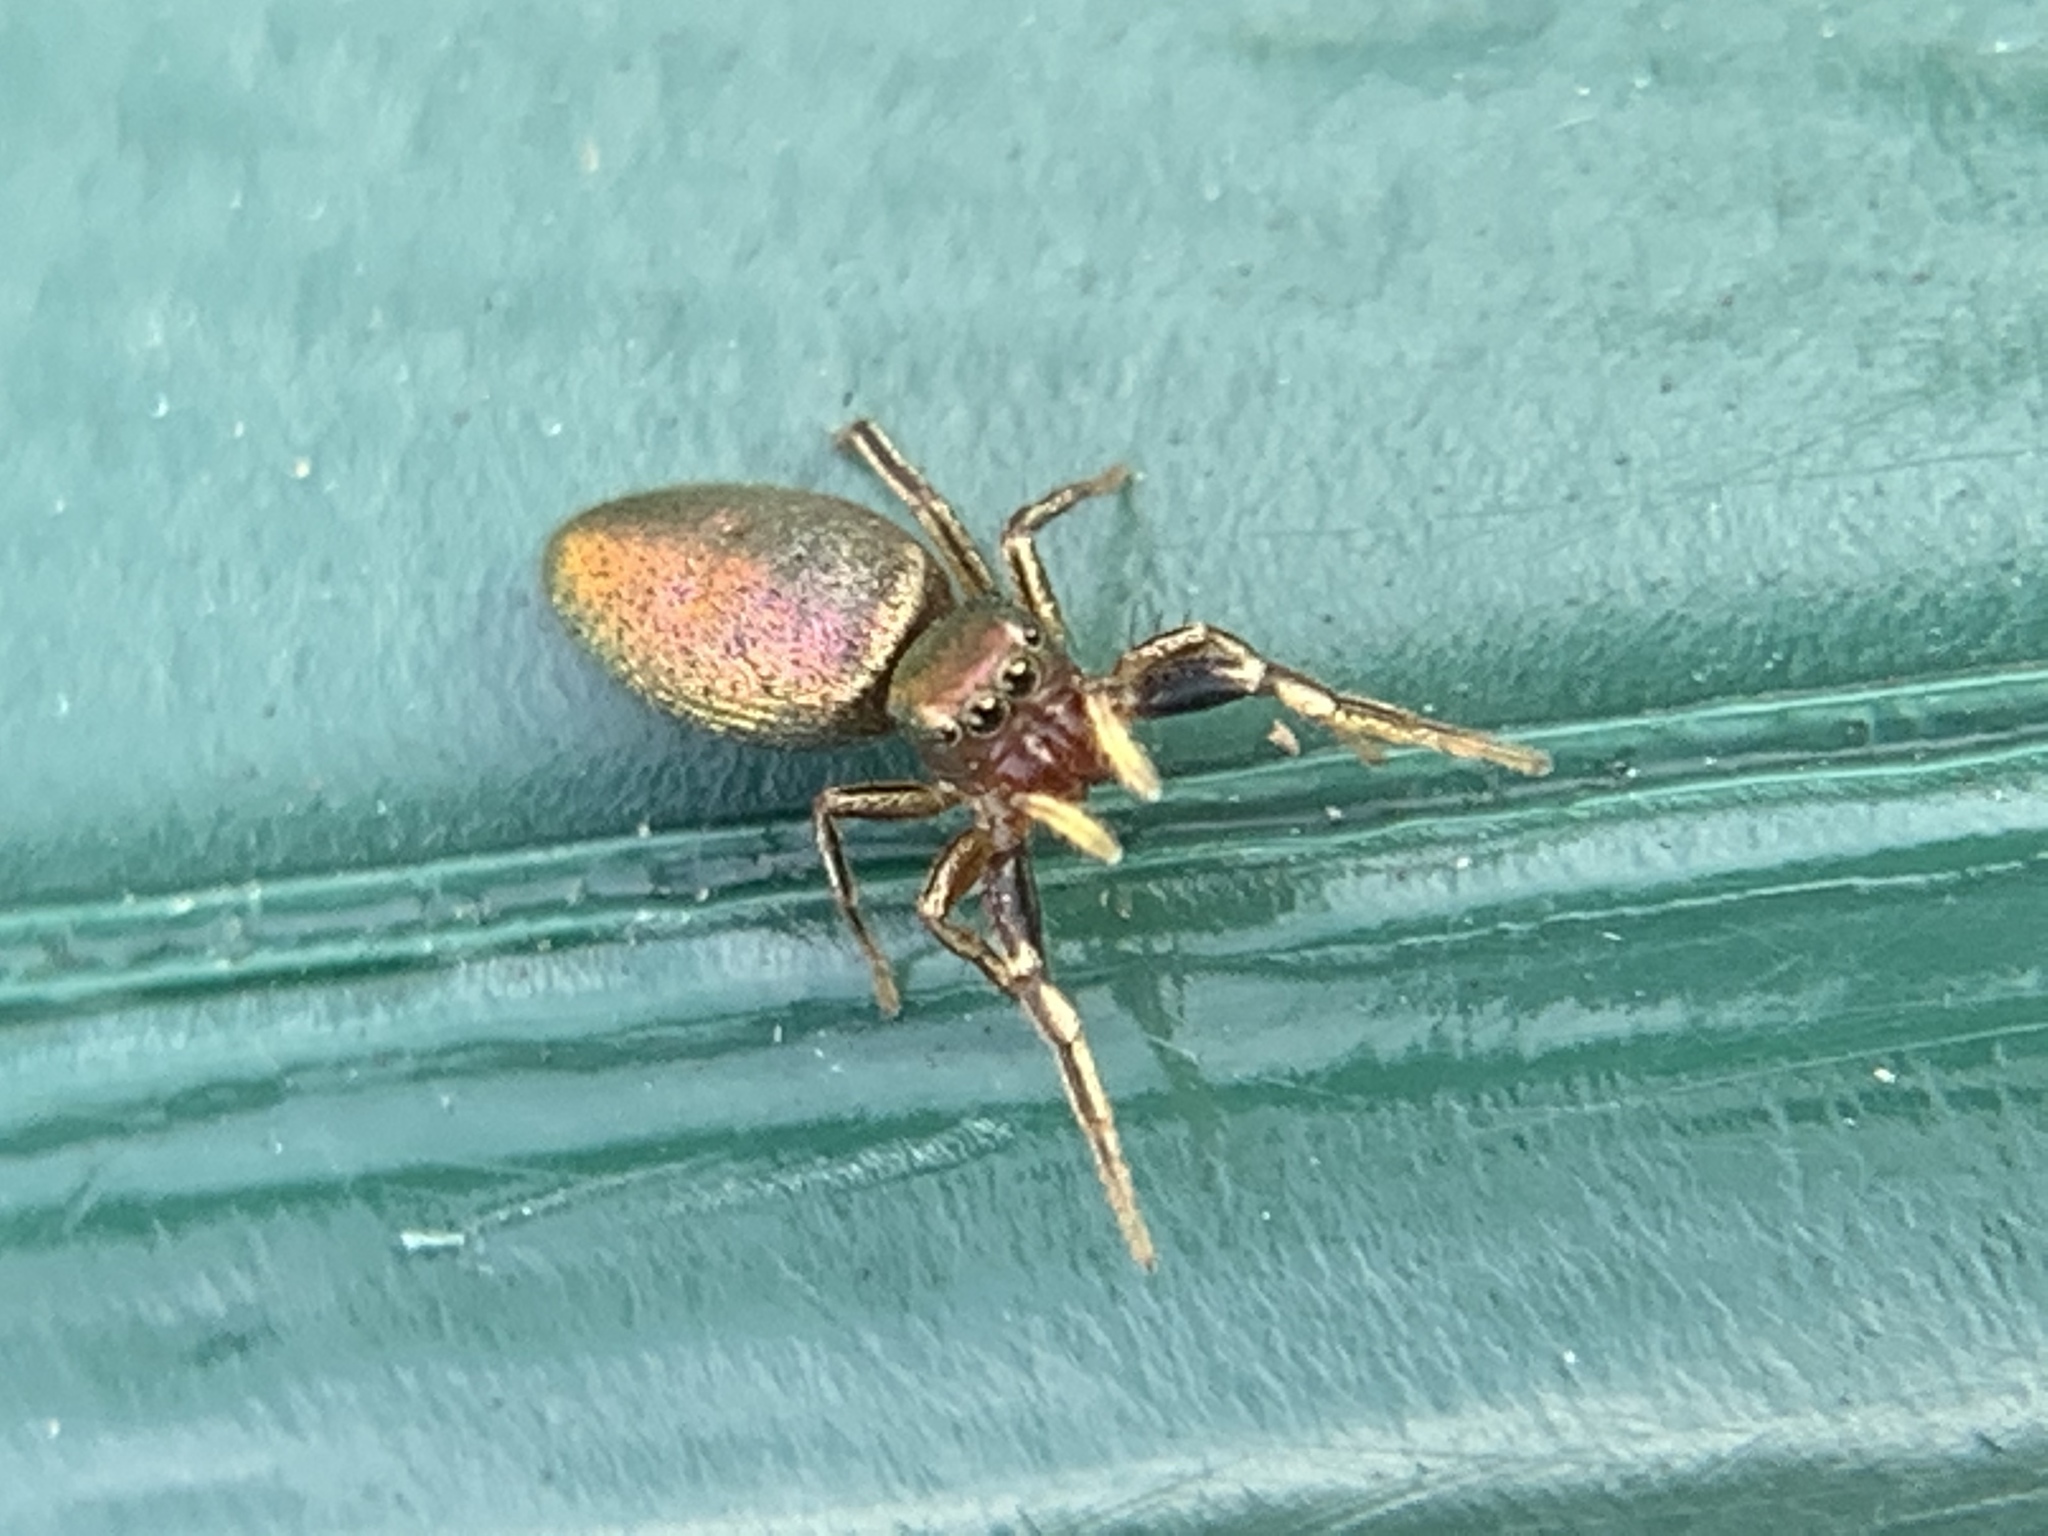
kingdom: Animalia
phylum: Arthropoda
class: Arachnida
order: Araneae
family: Salticidae
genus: Tutelina
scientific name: Tutelina elegans
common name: Thin-spined jumping spider
